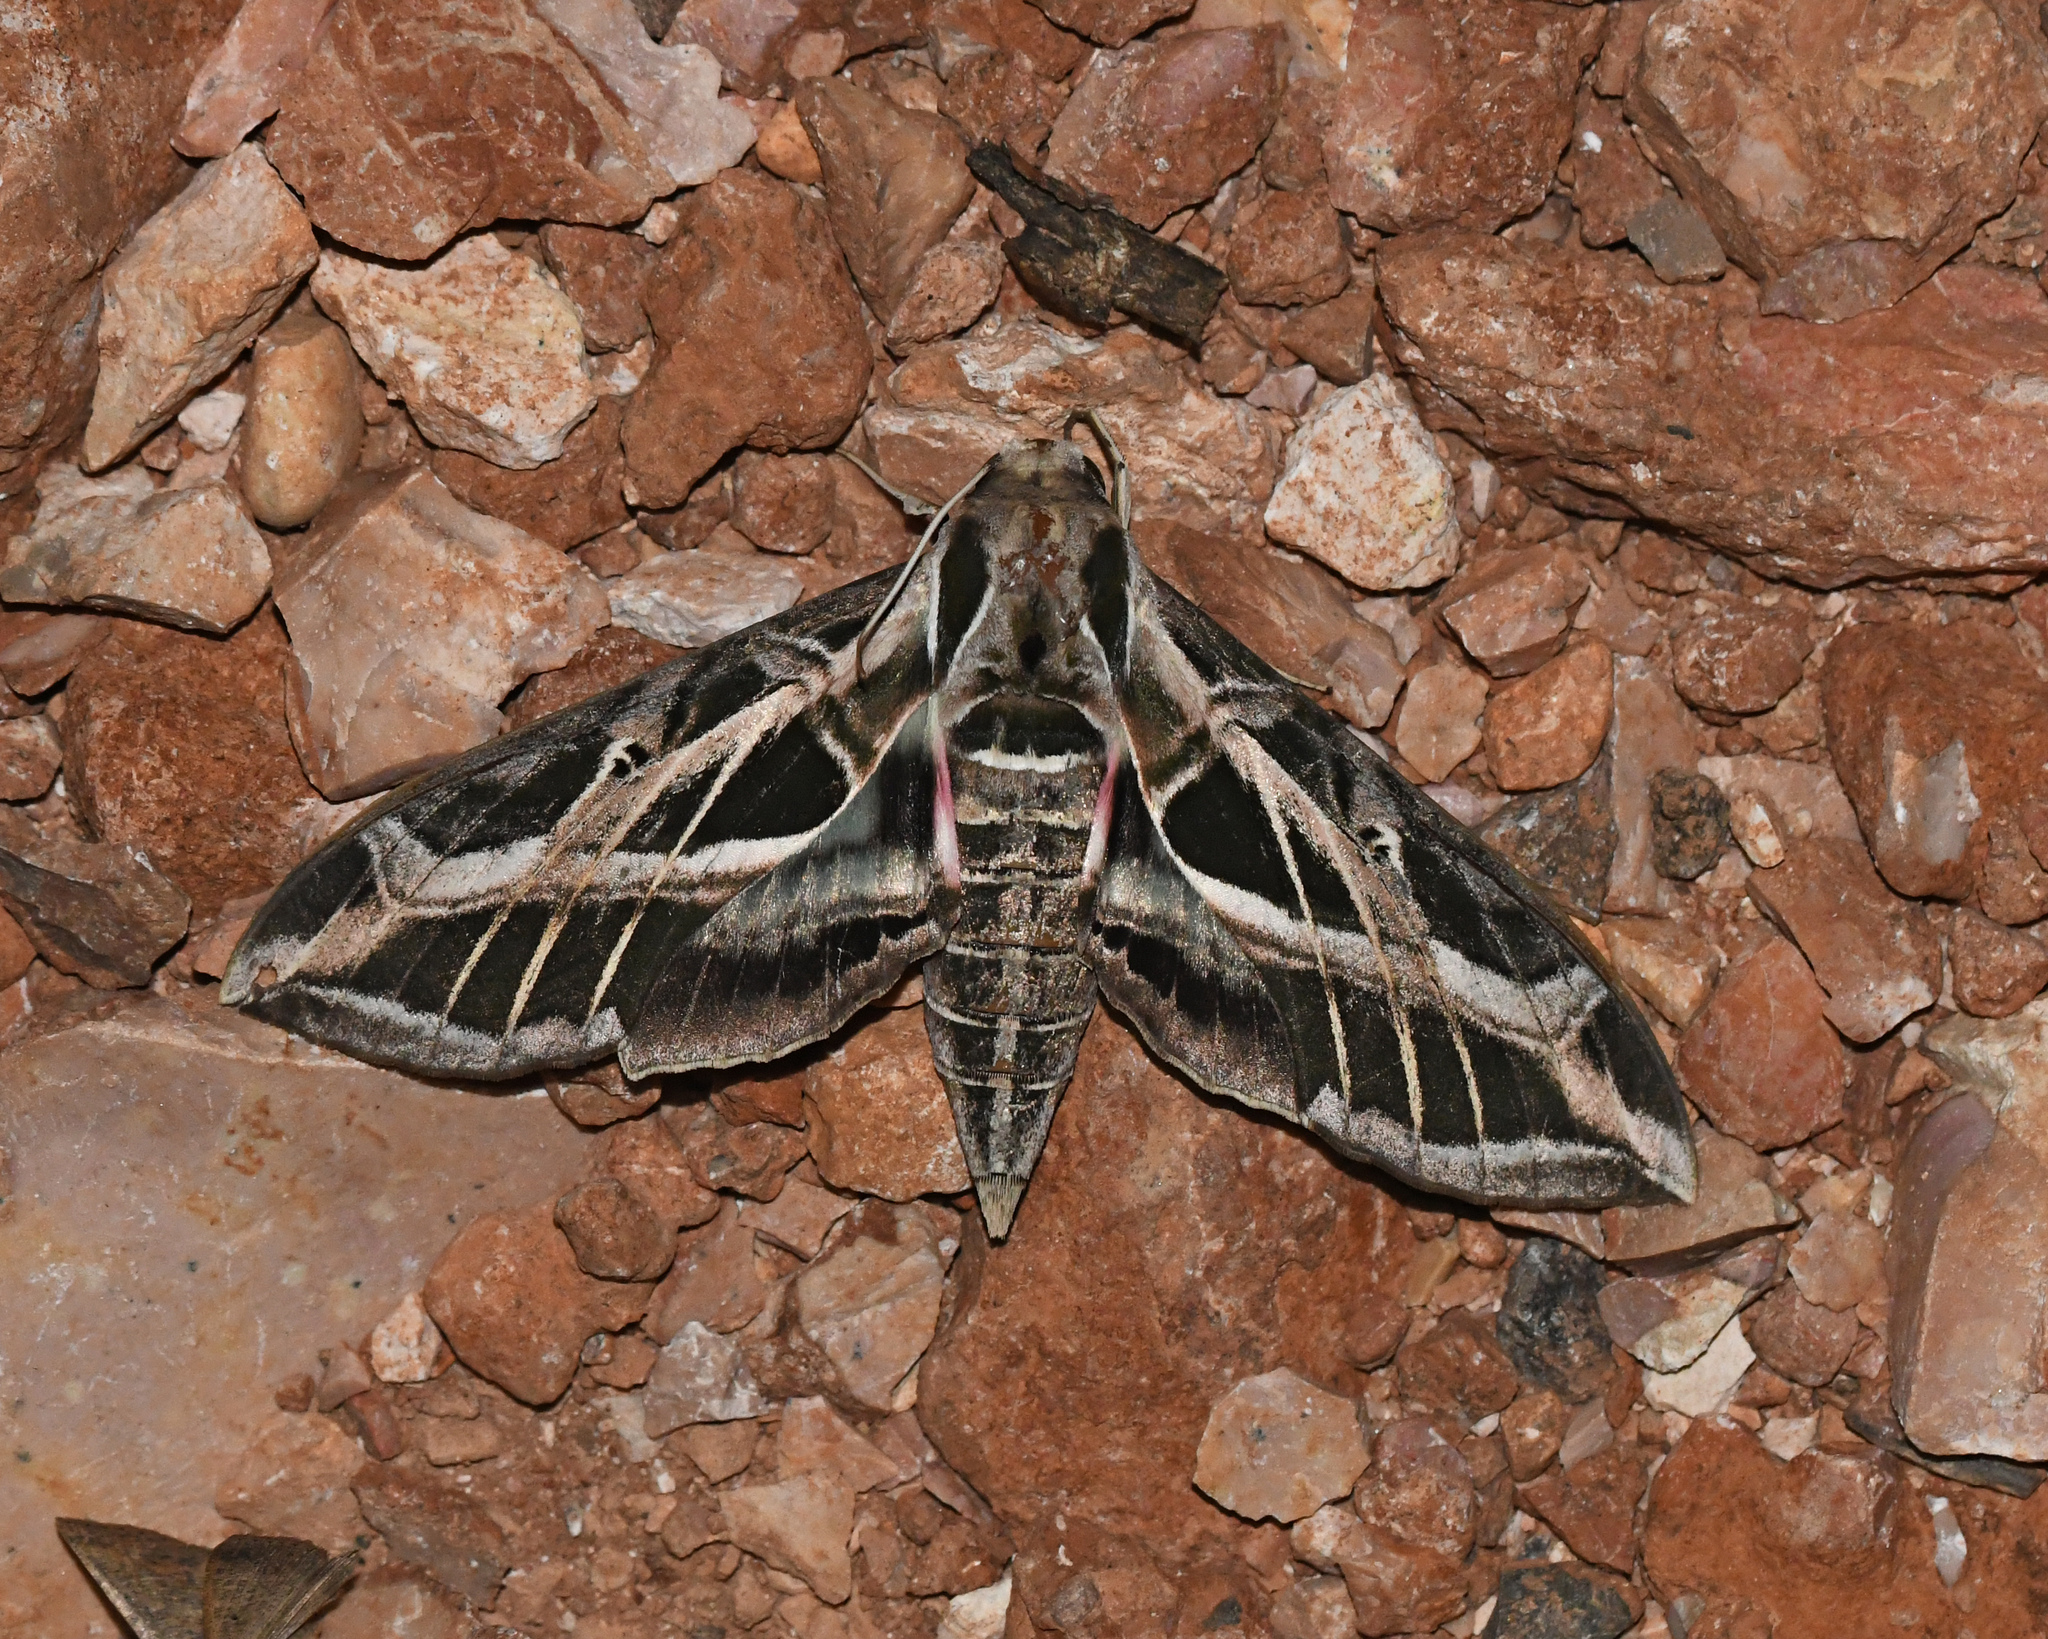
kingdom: Animalia
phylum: Arthropoda
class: Insecta
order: Lepidoptera
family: Sphingidae
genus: Eumorpha
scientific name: Eumorpha vitis
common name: Vine sphinx
